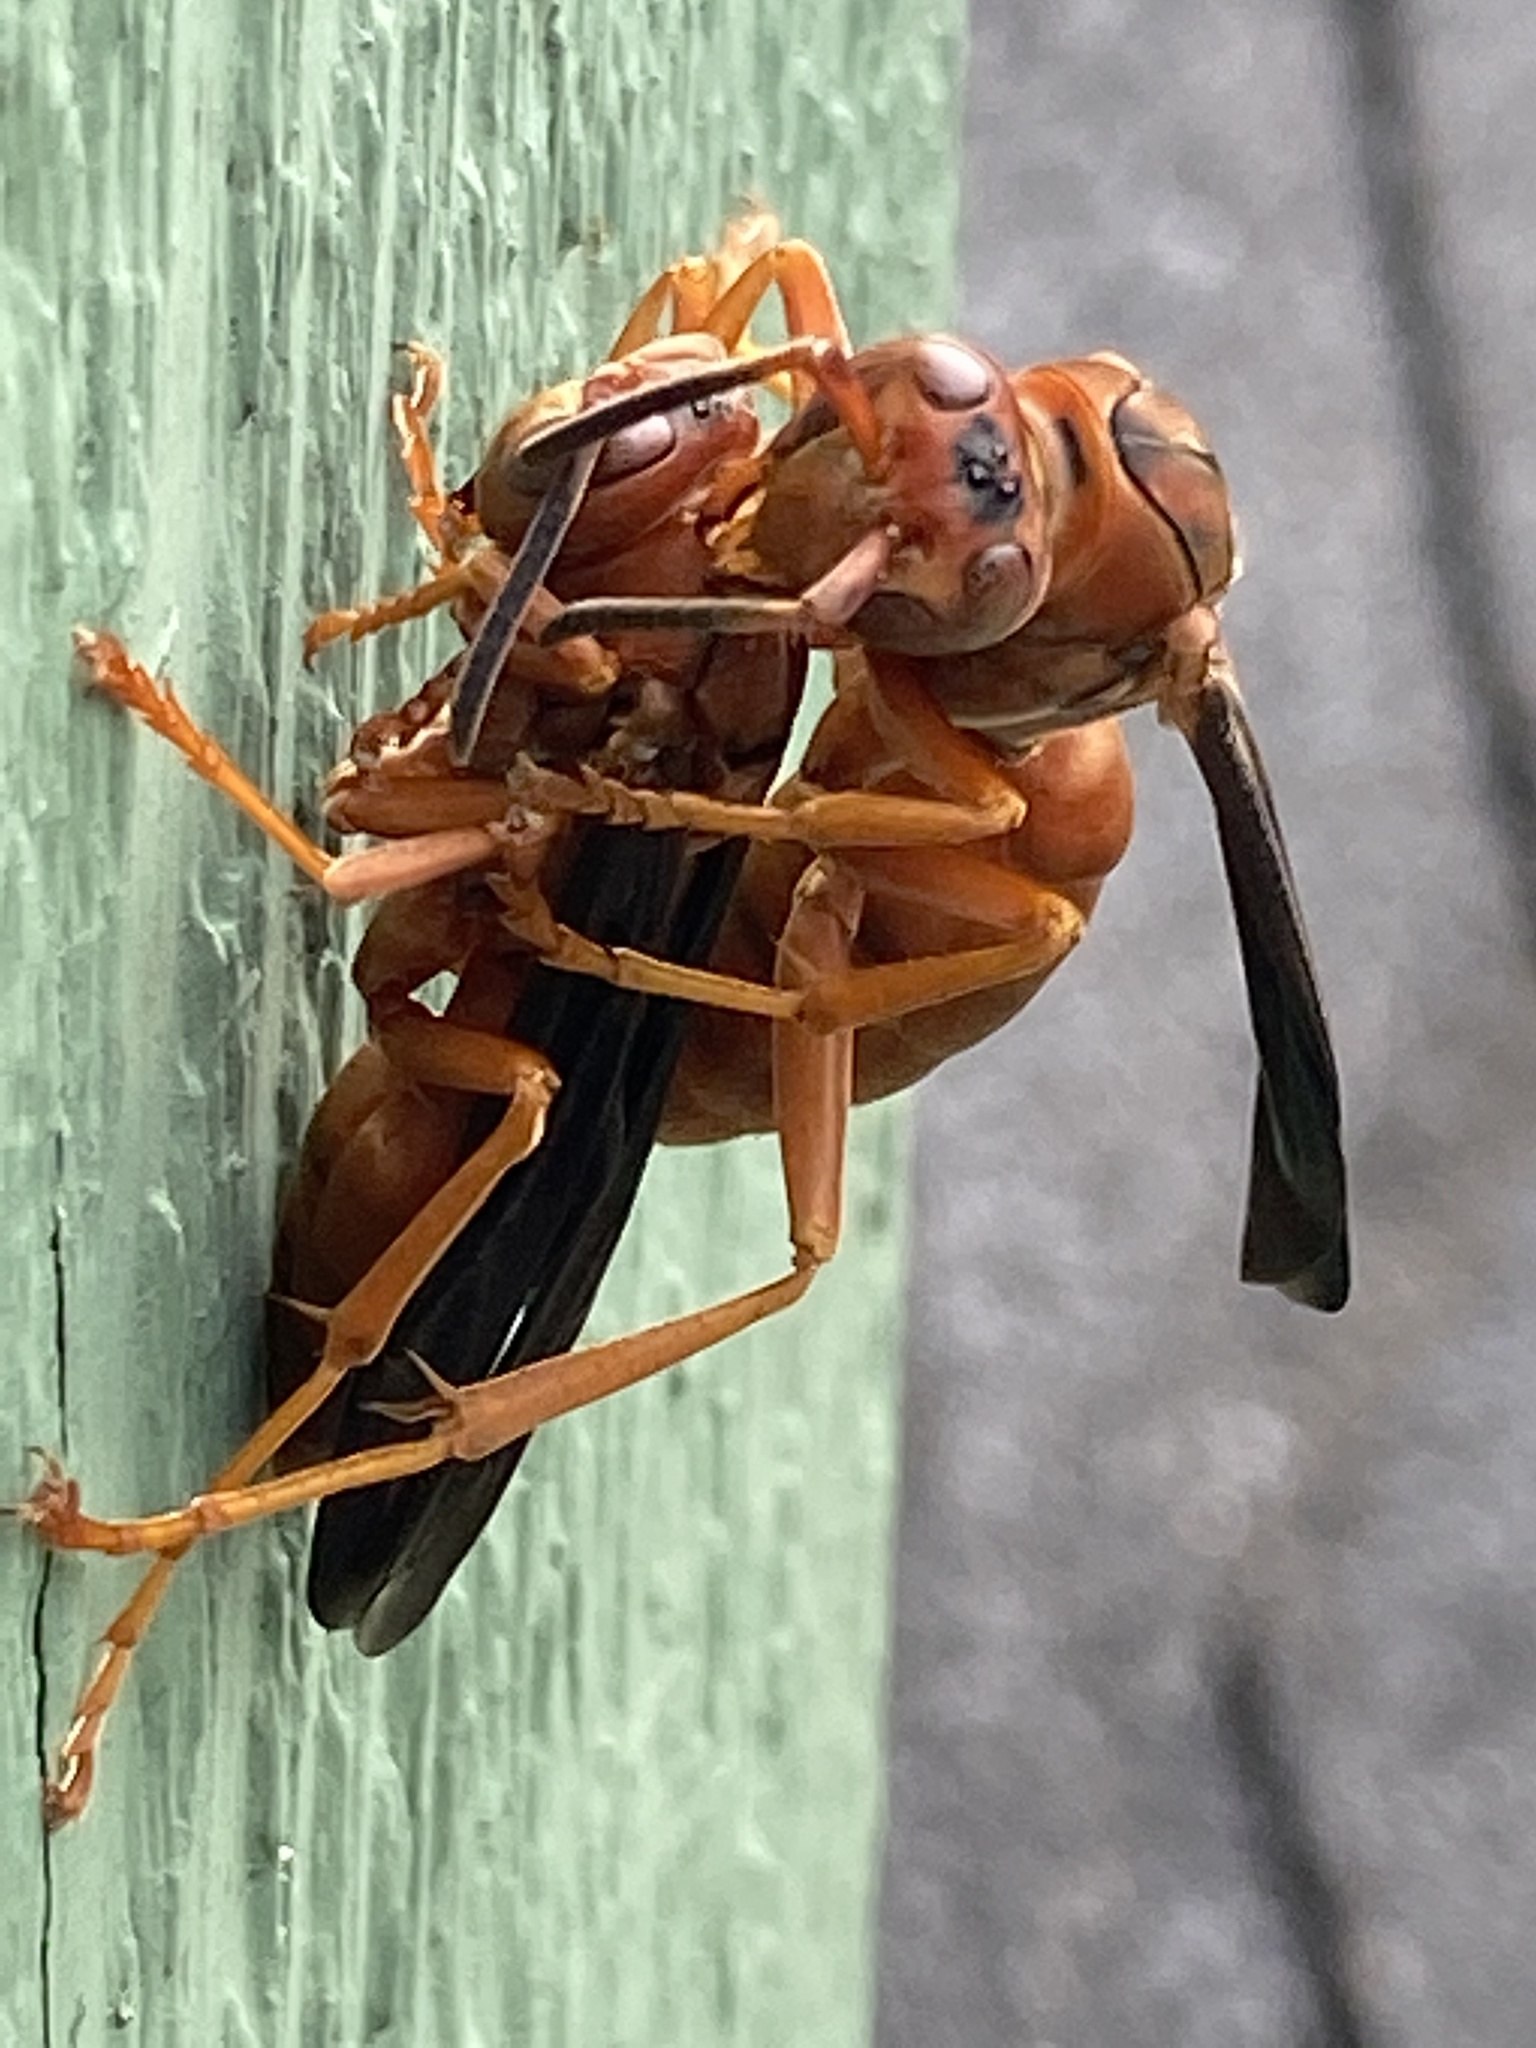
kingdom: Animalia
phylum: Arthropoda
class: Insecta
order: Hymenoptera
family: Eumenidae
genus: Polistes
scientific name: Polistes carolina
